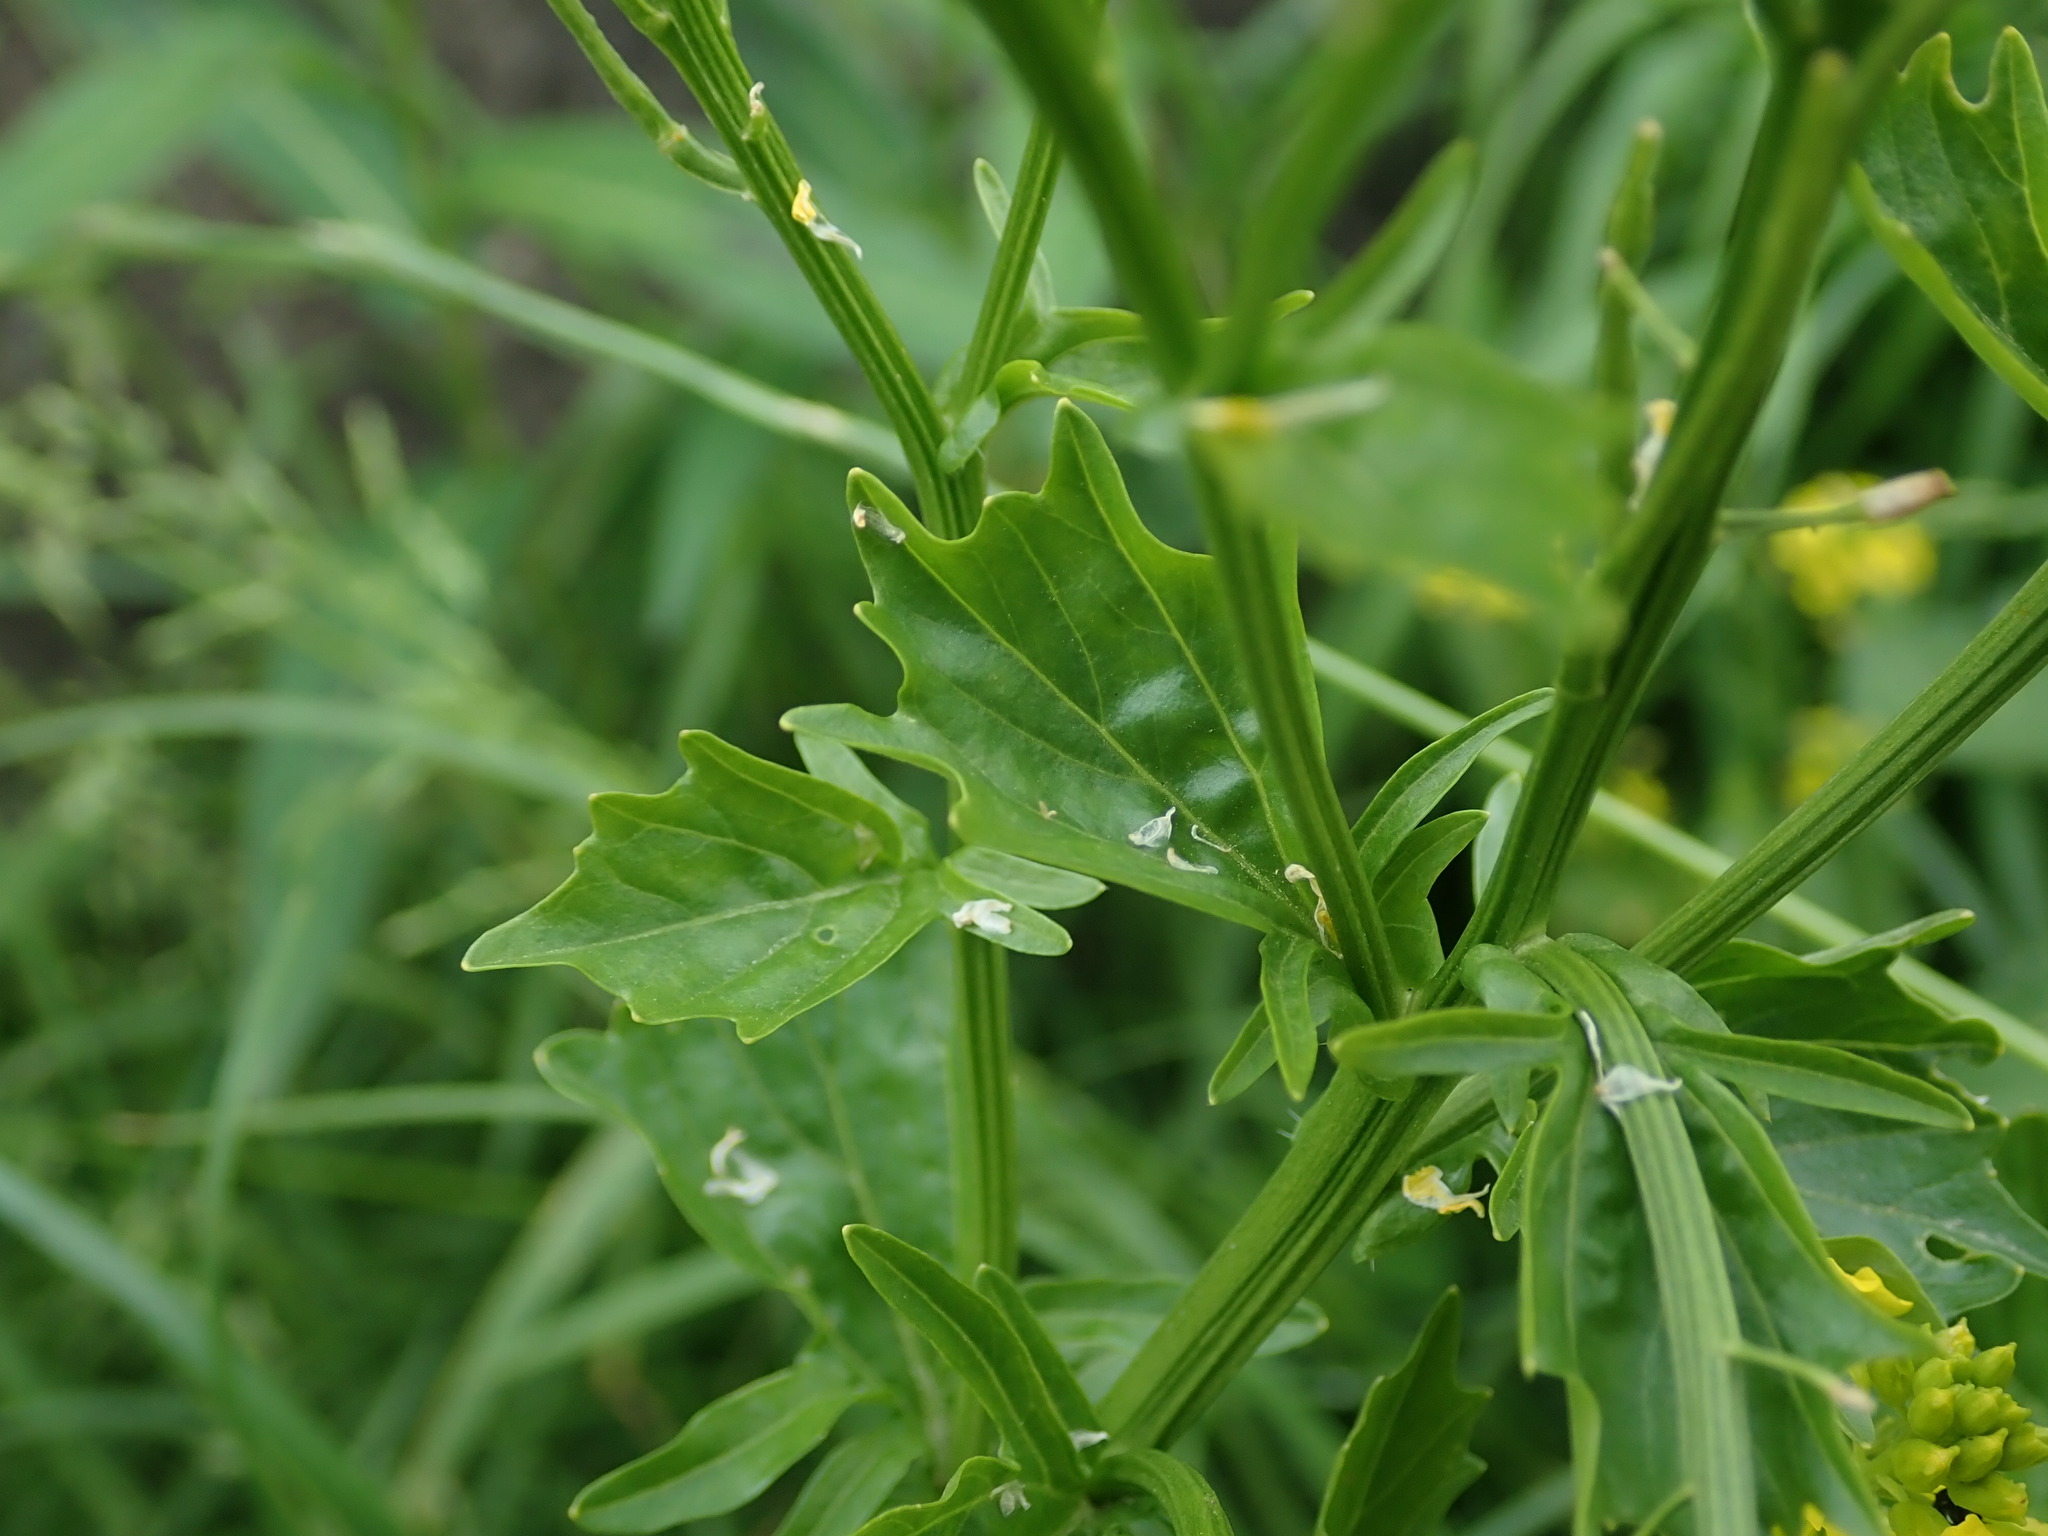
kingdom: Plantae
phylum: Tracheophyta
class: Magnoliopsida
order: Brassicales
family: Brassicaceae
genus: Barbarea
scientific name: Barbarea vulgaris
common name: Cressy-greens
